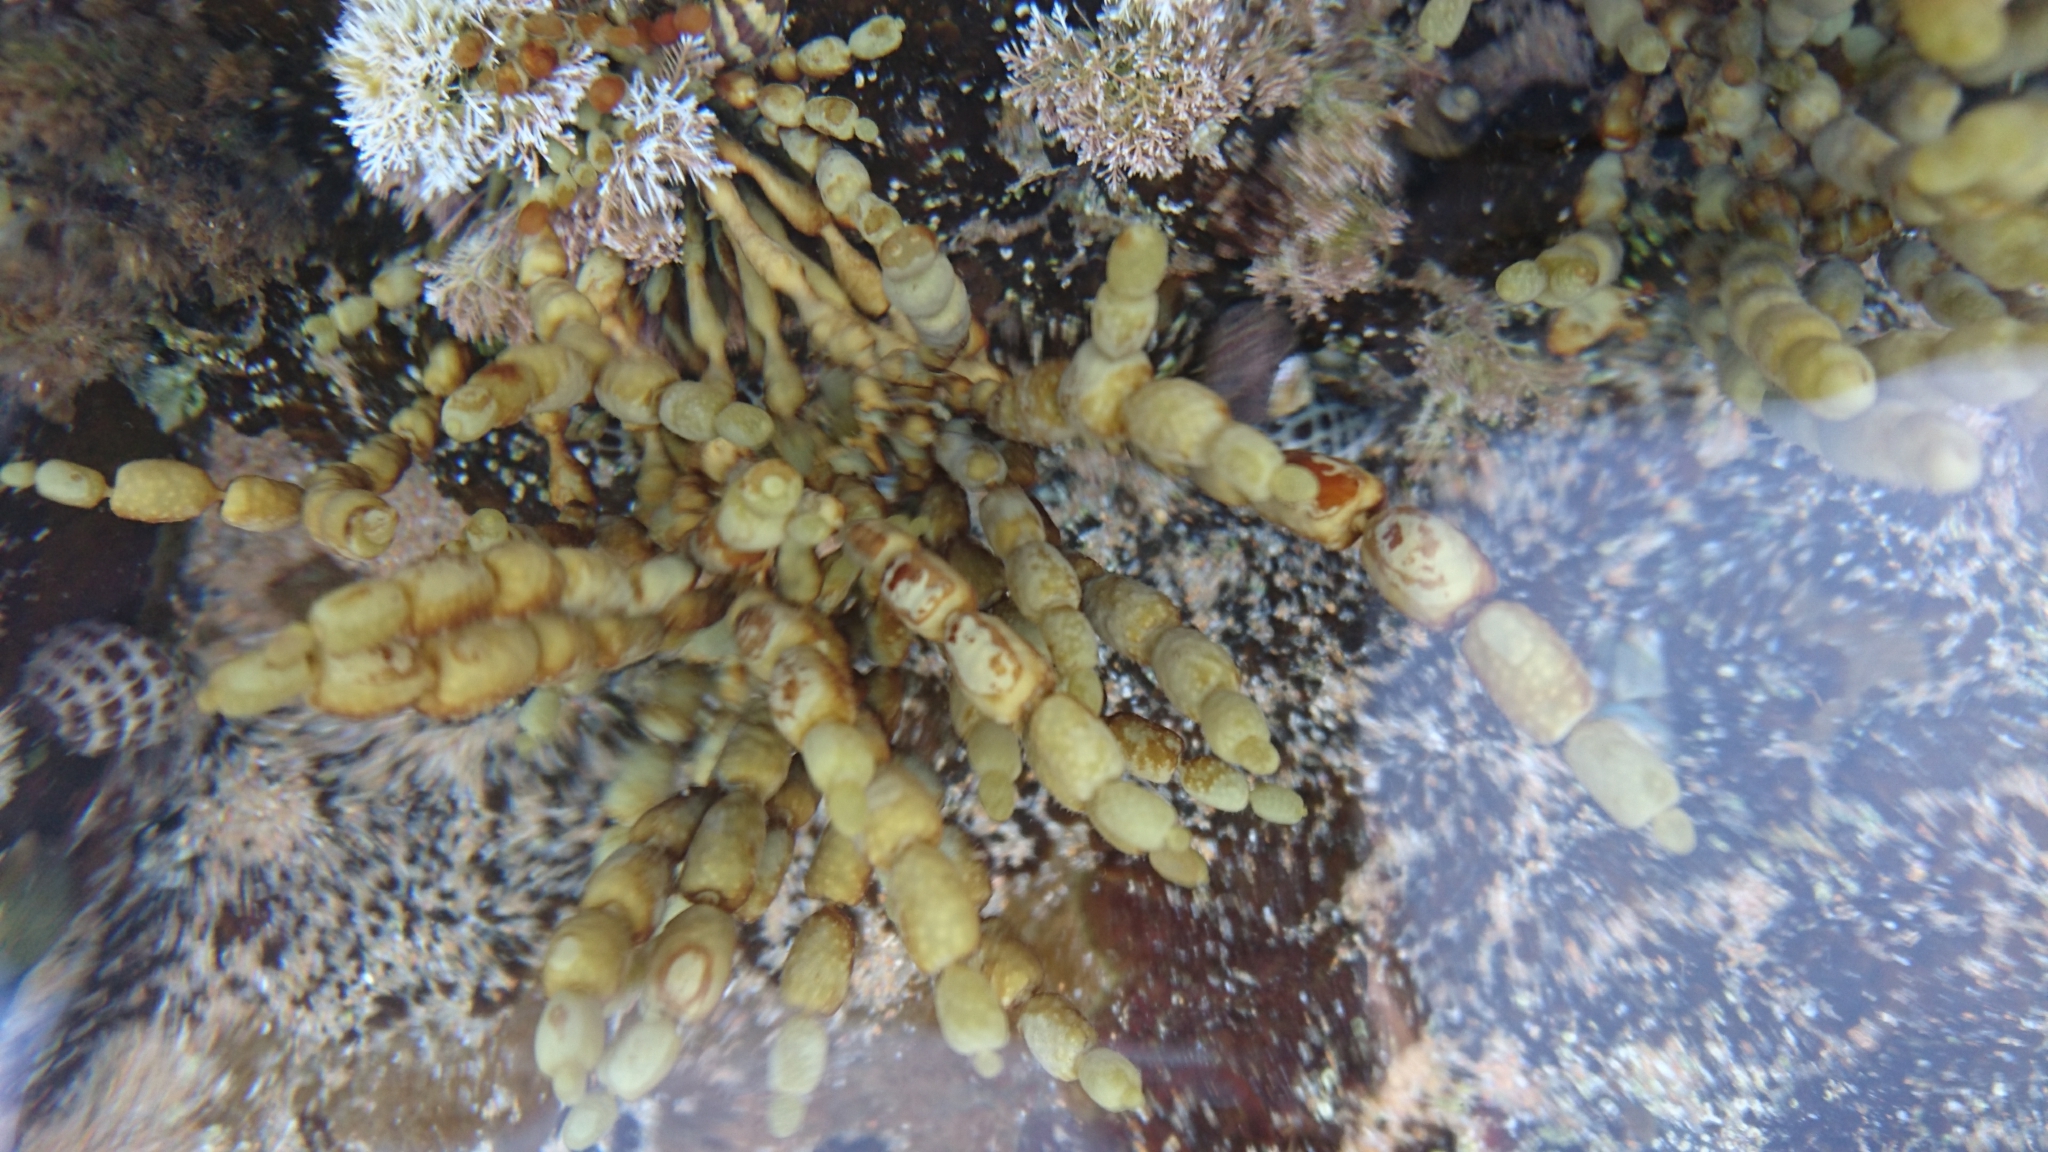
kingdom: Chromista
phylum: Ochrophyta
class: Phaeophyceae
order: Fucales
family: Hormosiraceae
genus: Hormosira
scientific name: Hormosira banksii
